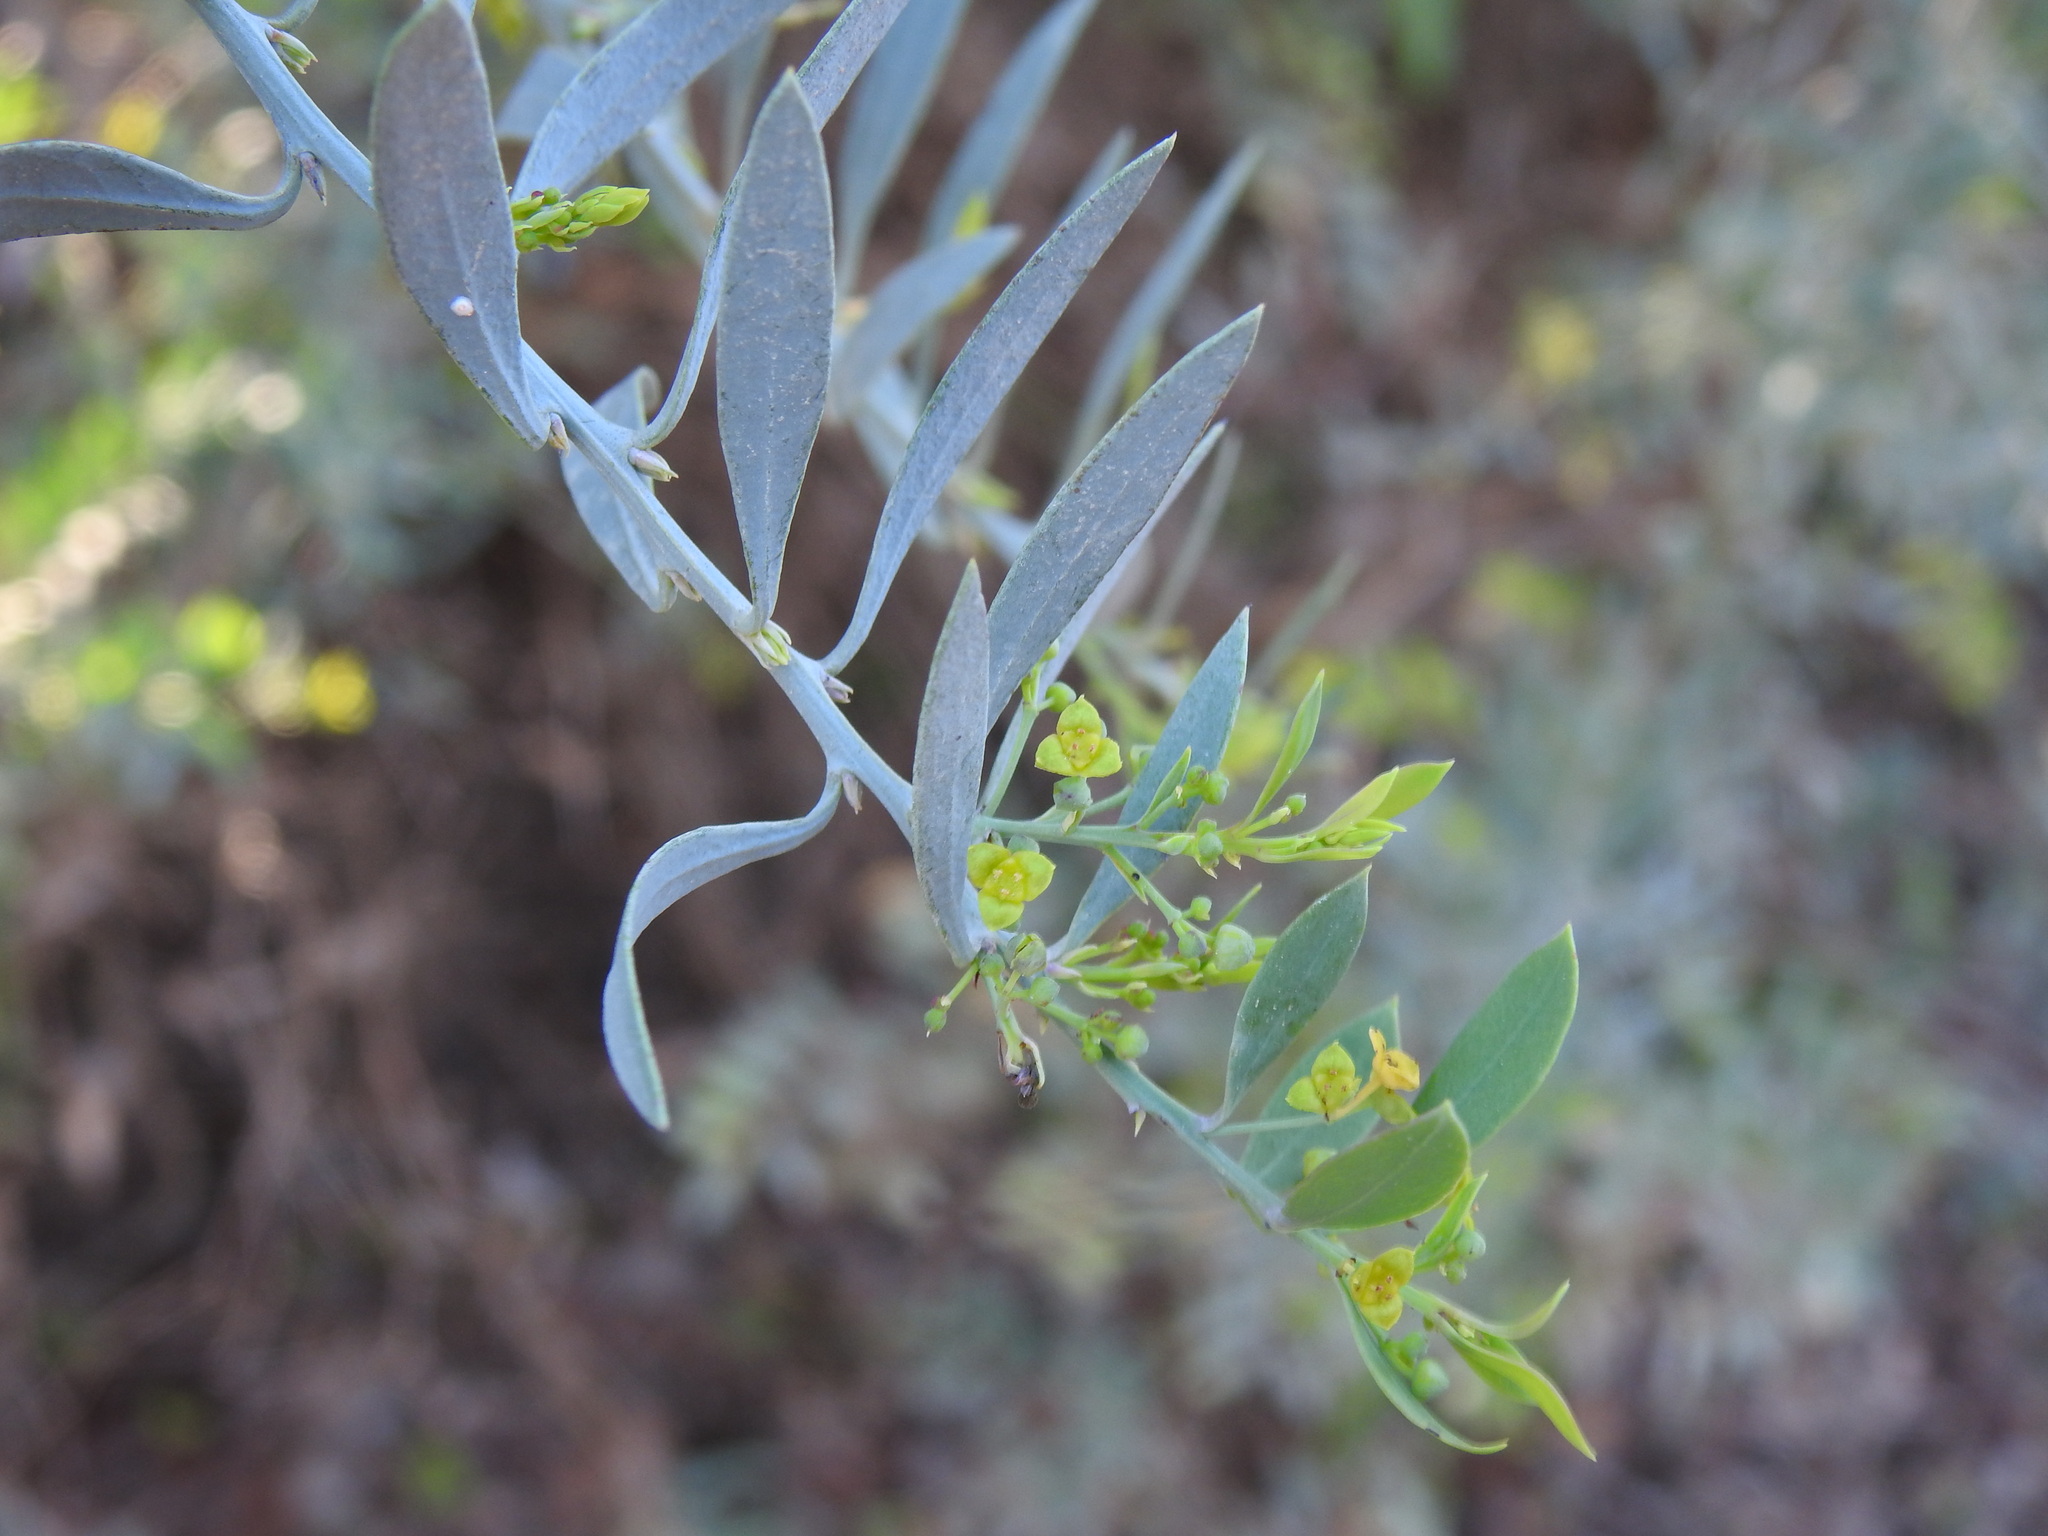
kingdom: Plantae
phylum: Tracheophyta
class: Magnoliopsida
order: Santalales
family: Santalaceae
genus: Osyris
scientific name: Osyris lanceolata
